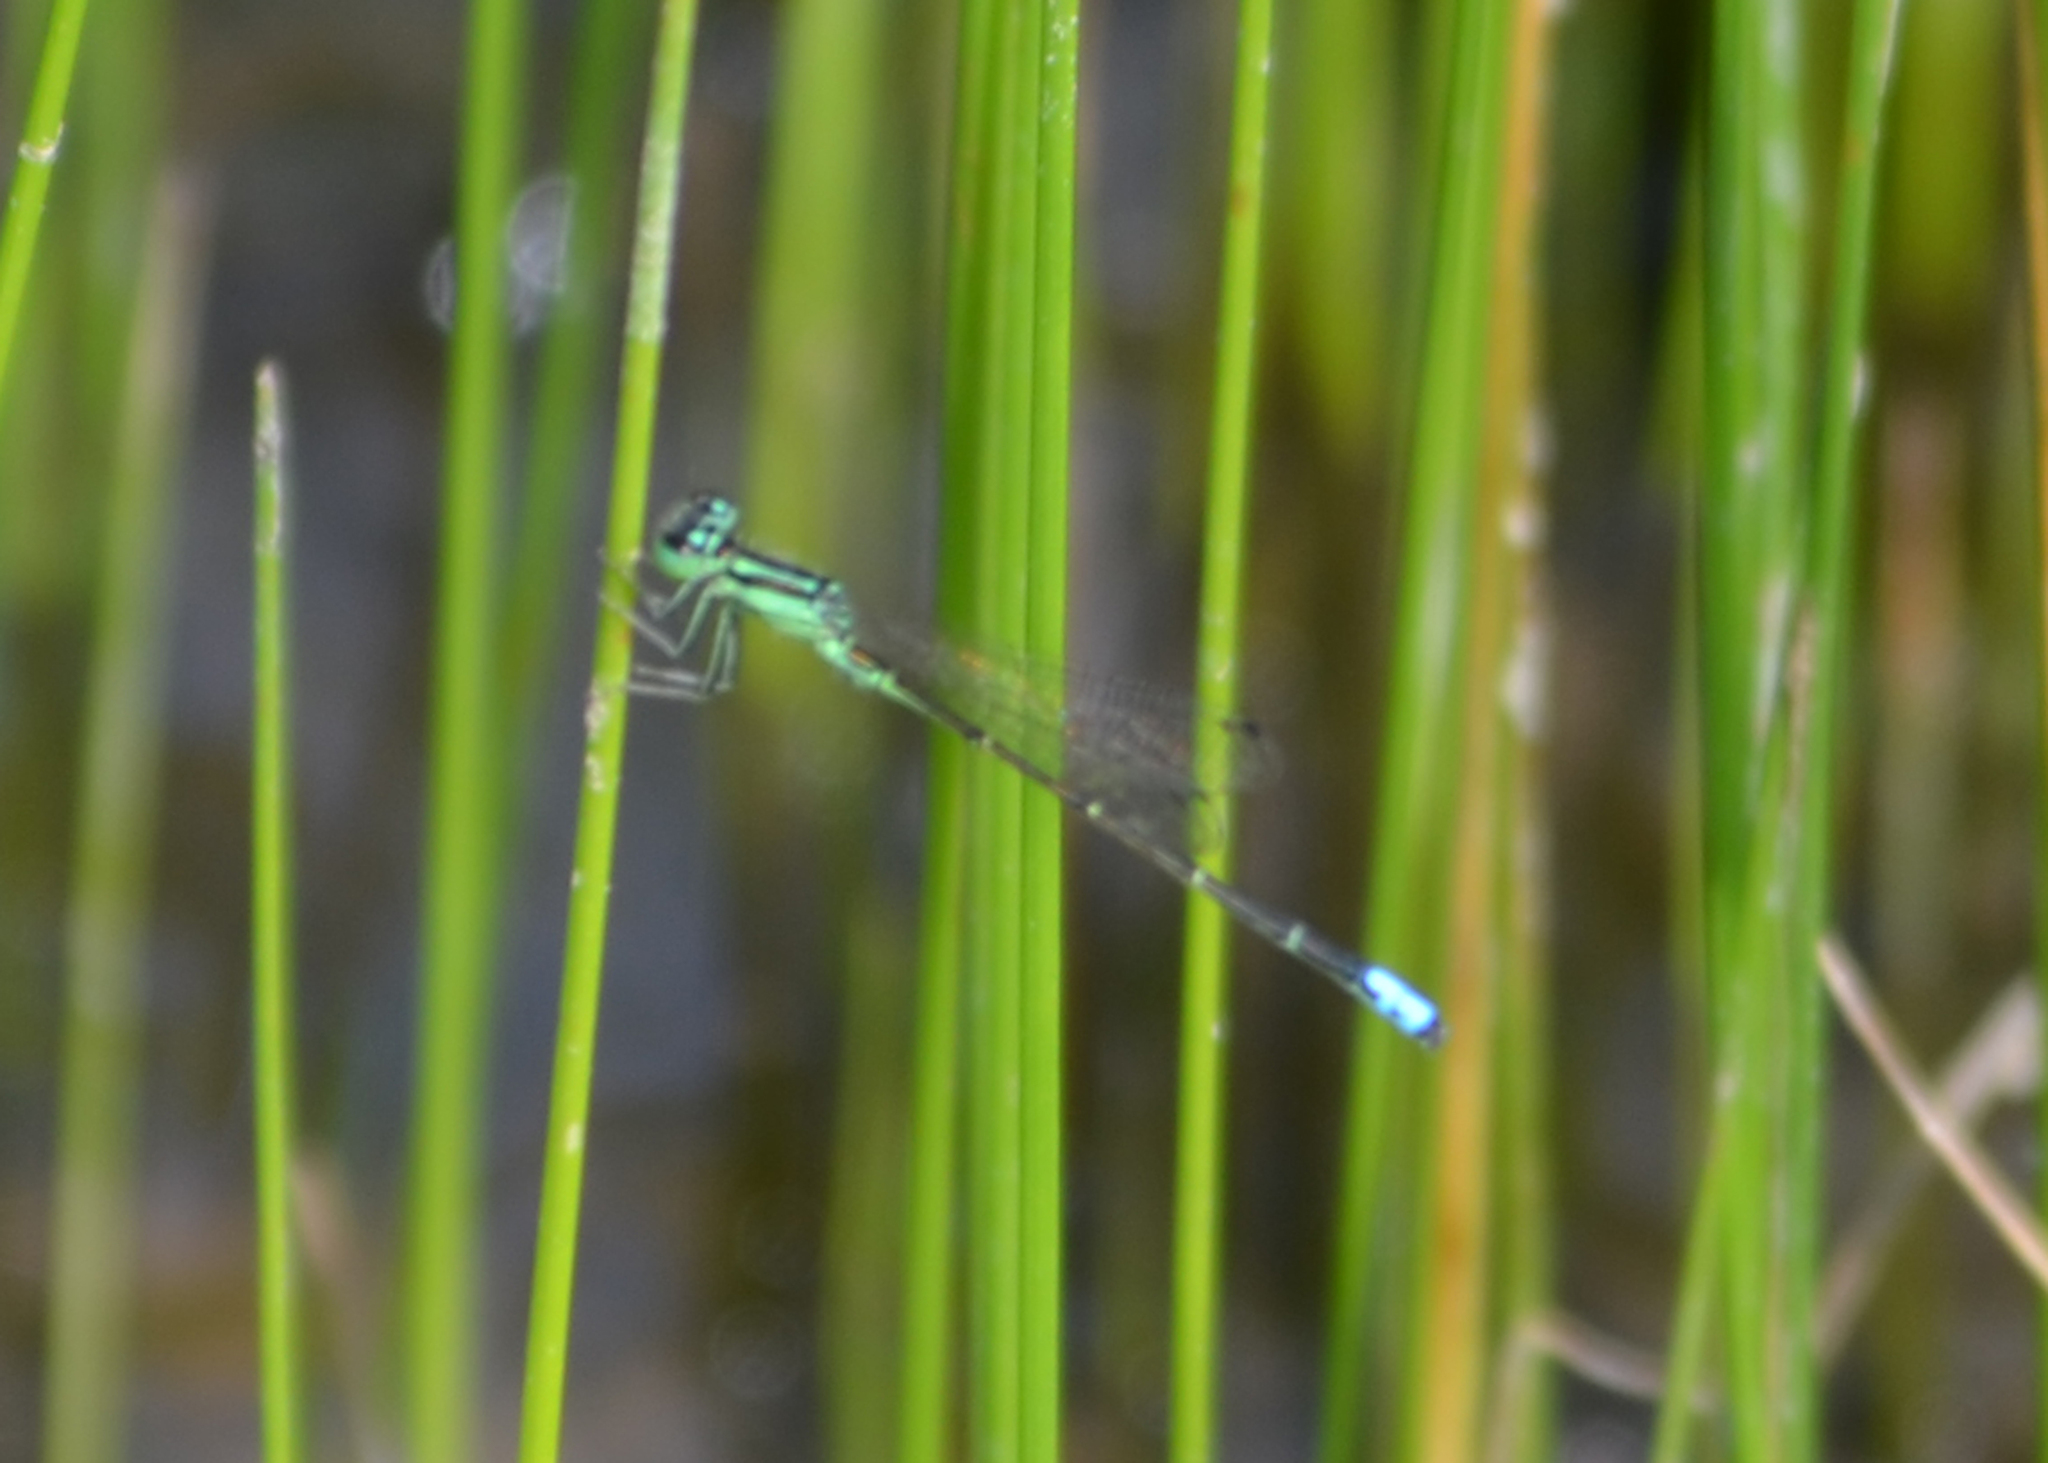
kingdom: Animalia
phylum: Arthropoda
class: Insecta
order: Odonata
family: Coenagrionidae
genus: Ischnura
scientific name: Ischnura verticalis
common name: Eastern forktail
